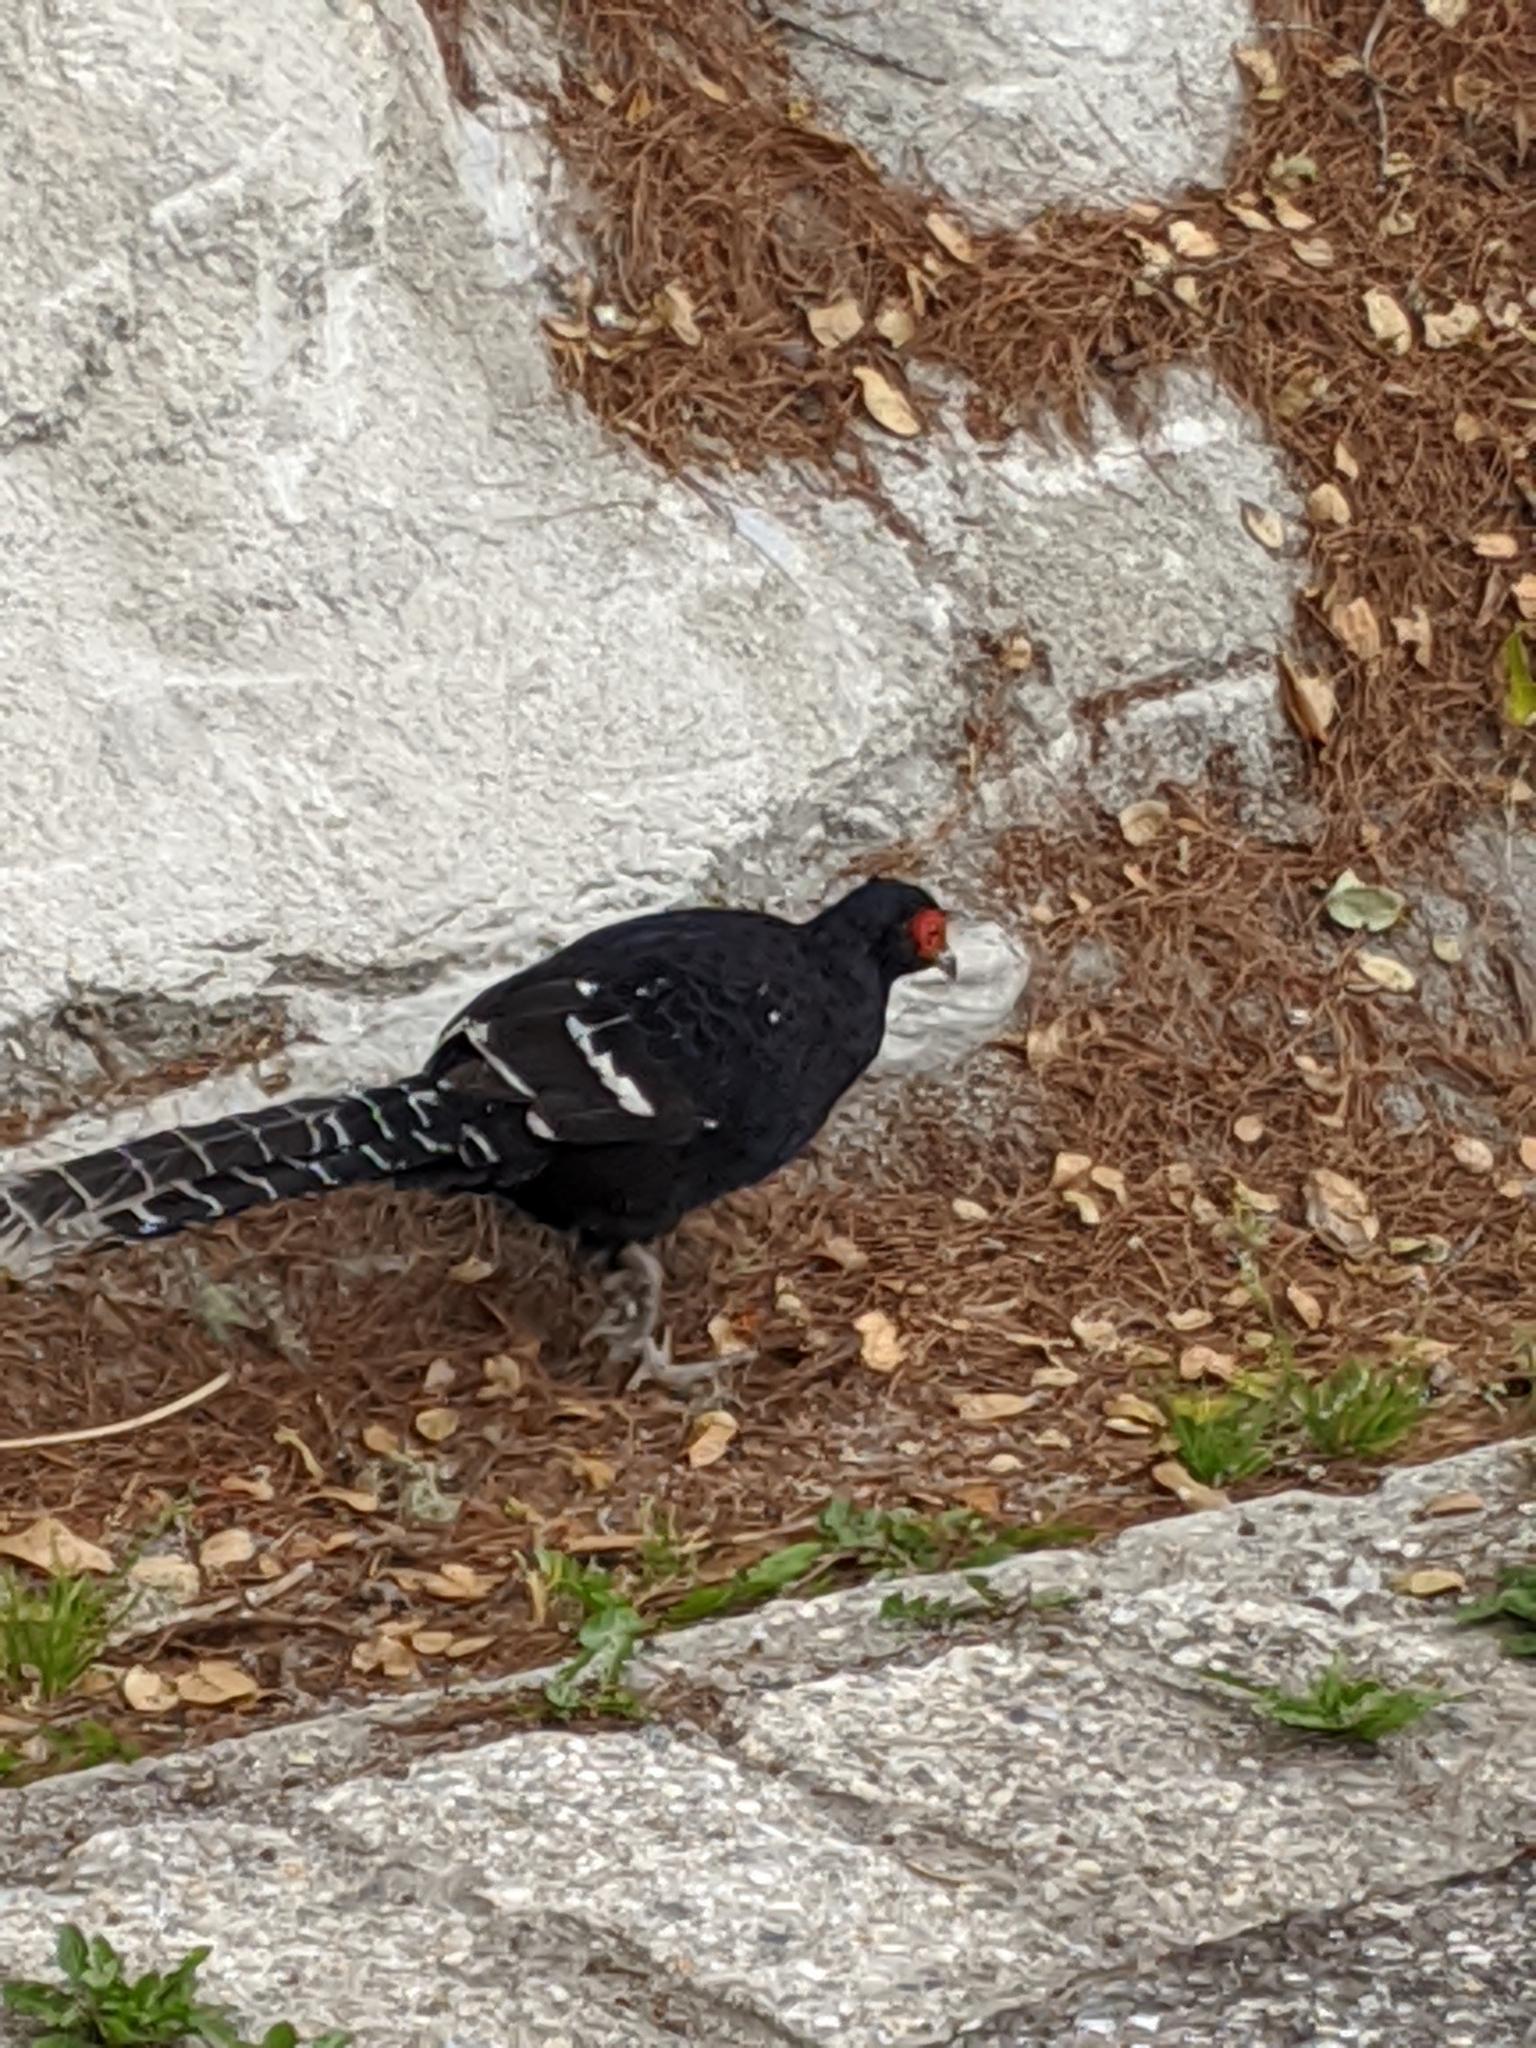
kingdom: Animalia
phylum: Chordata
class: Aves
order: Galliformes
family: Phasianidae
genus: Syrmaticus
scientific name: Syrmaticus mikado
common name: Mikado pheasant
